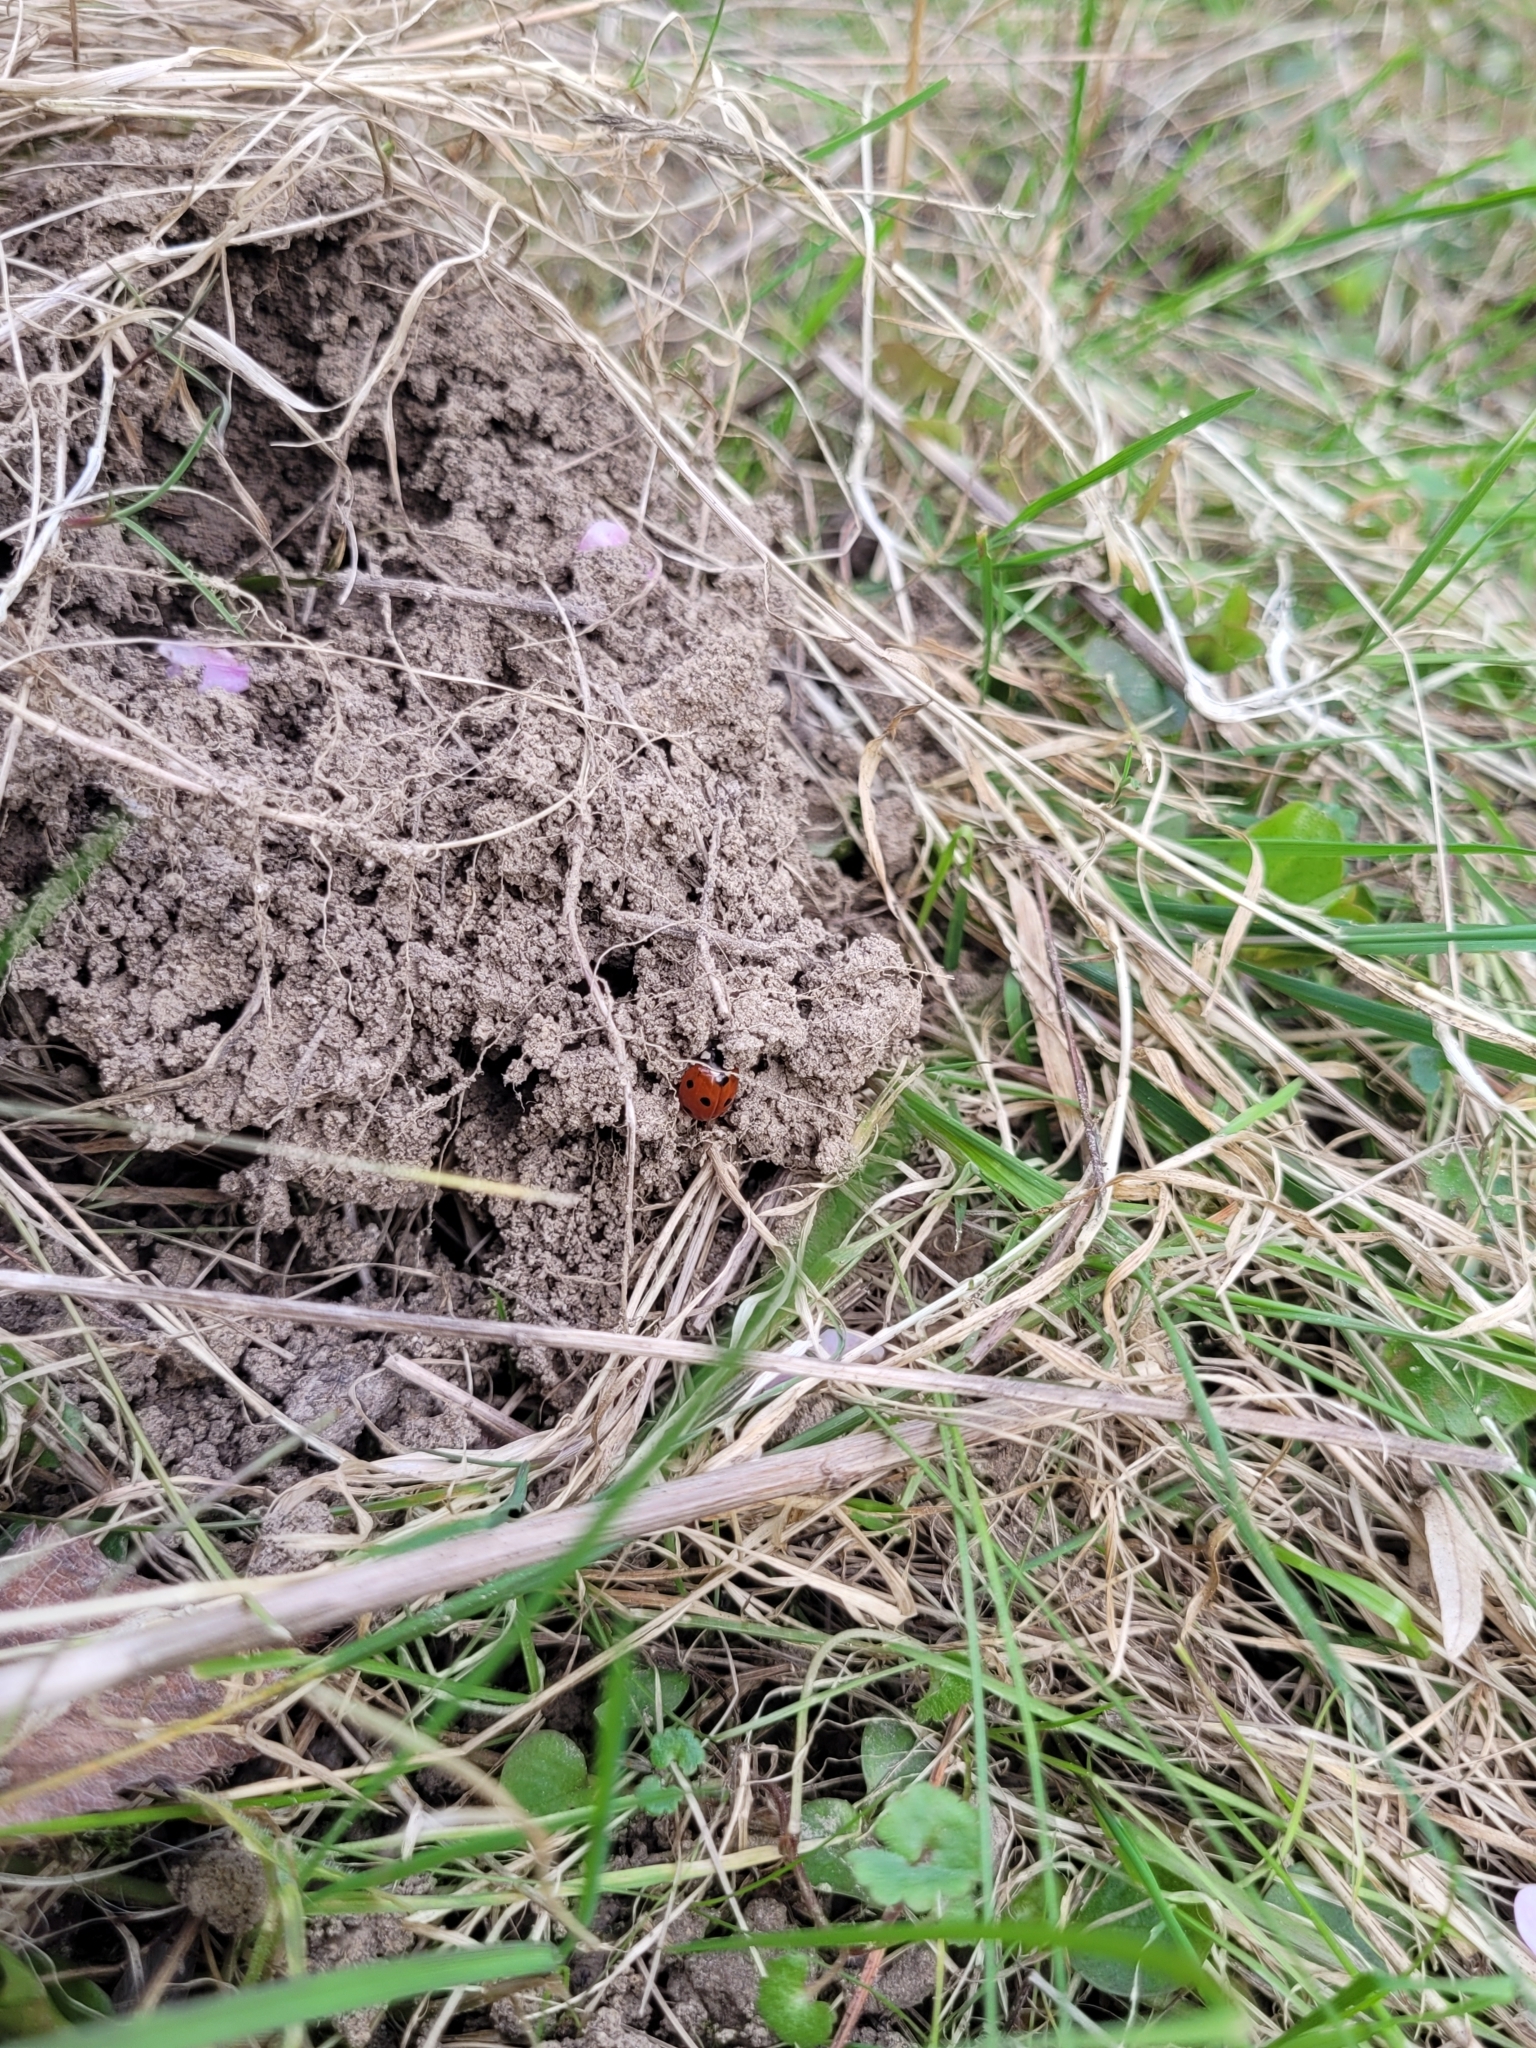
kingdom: Animalia
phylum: Arthropoda
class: Insecta
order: Coleoptera
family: Coccinellidae
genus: Coccinella
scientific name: Coccinella septempunctata
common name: Sevenspotted lady beetle
